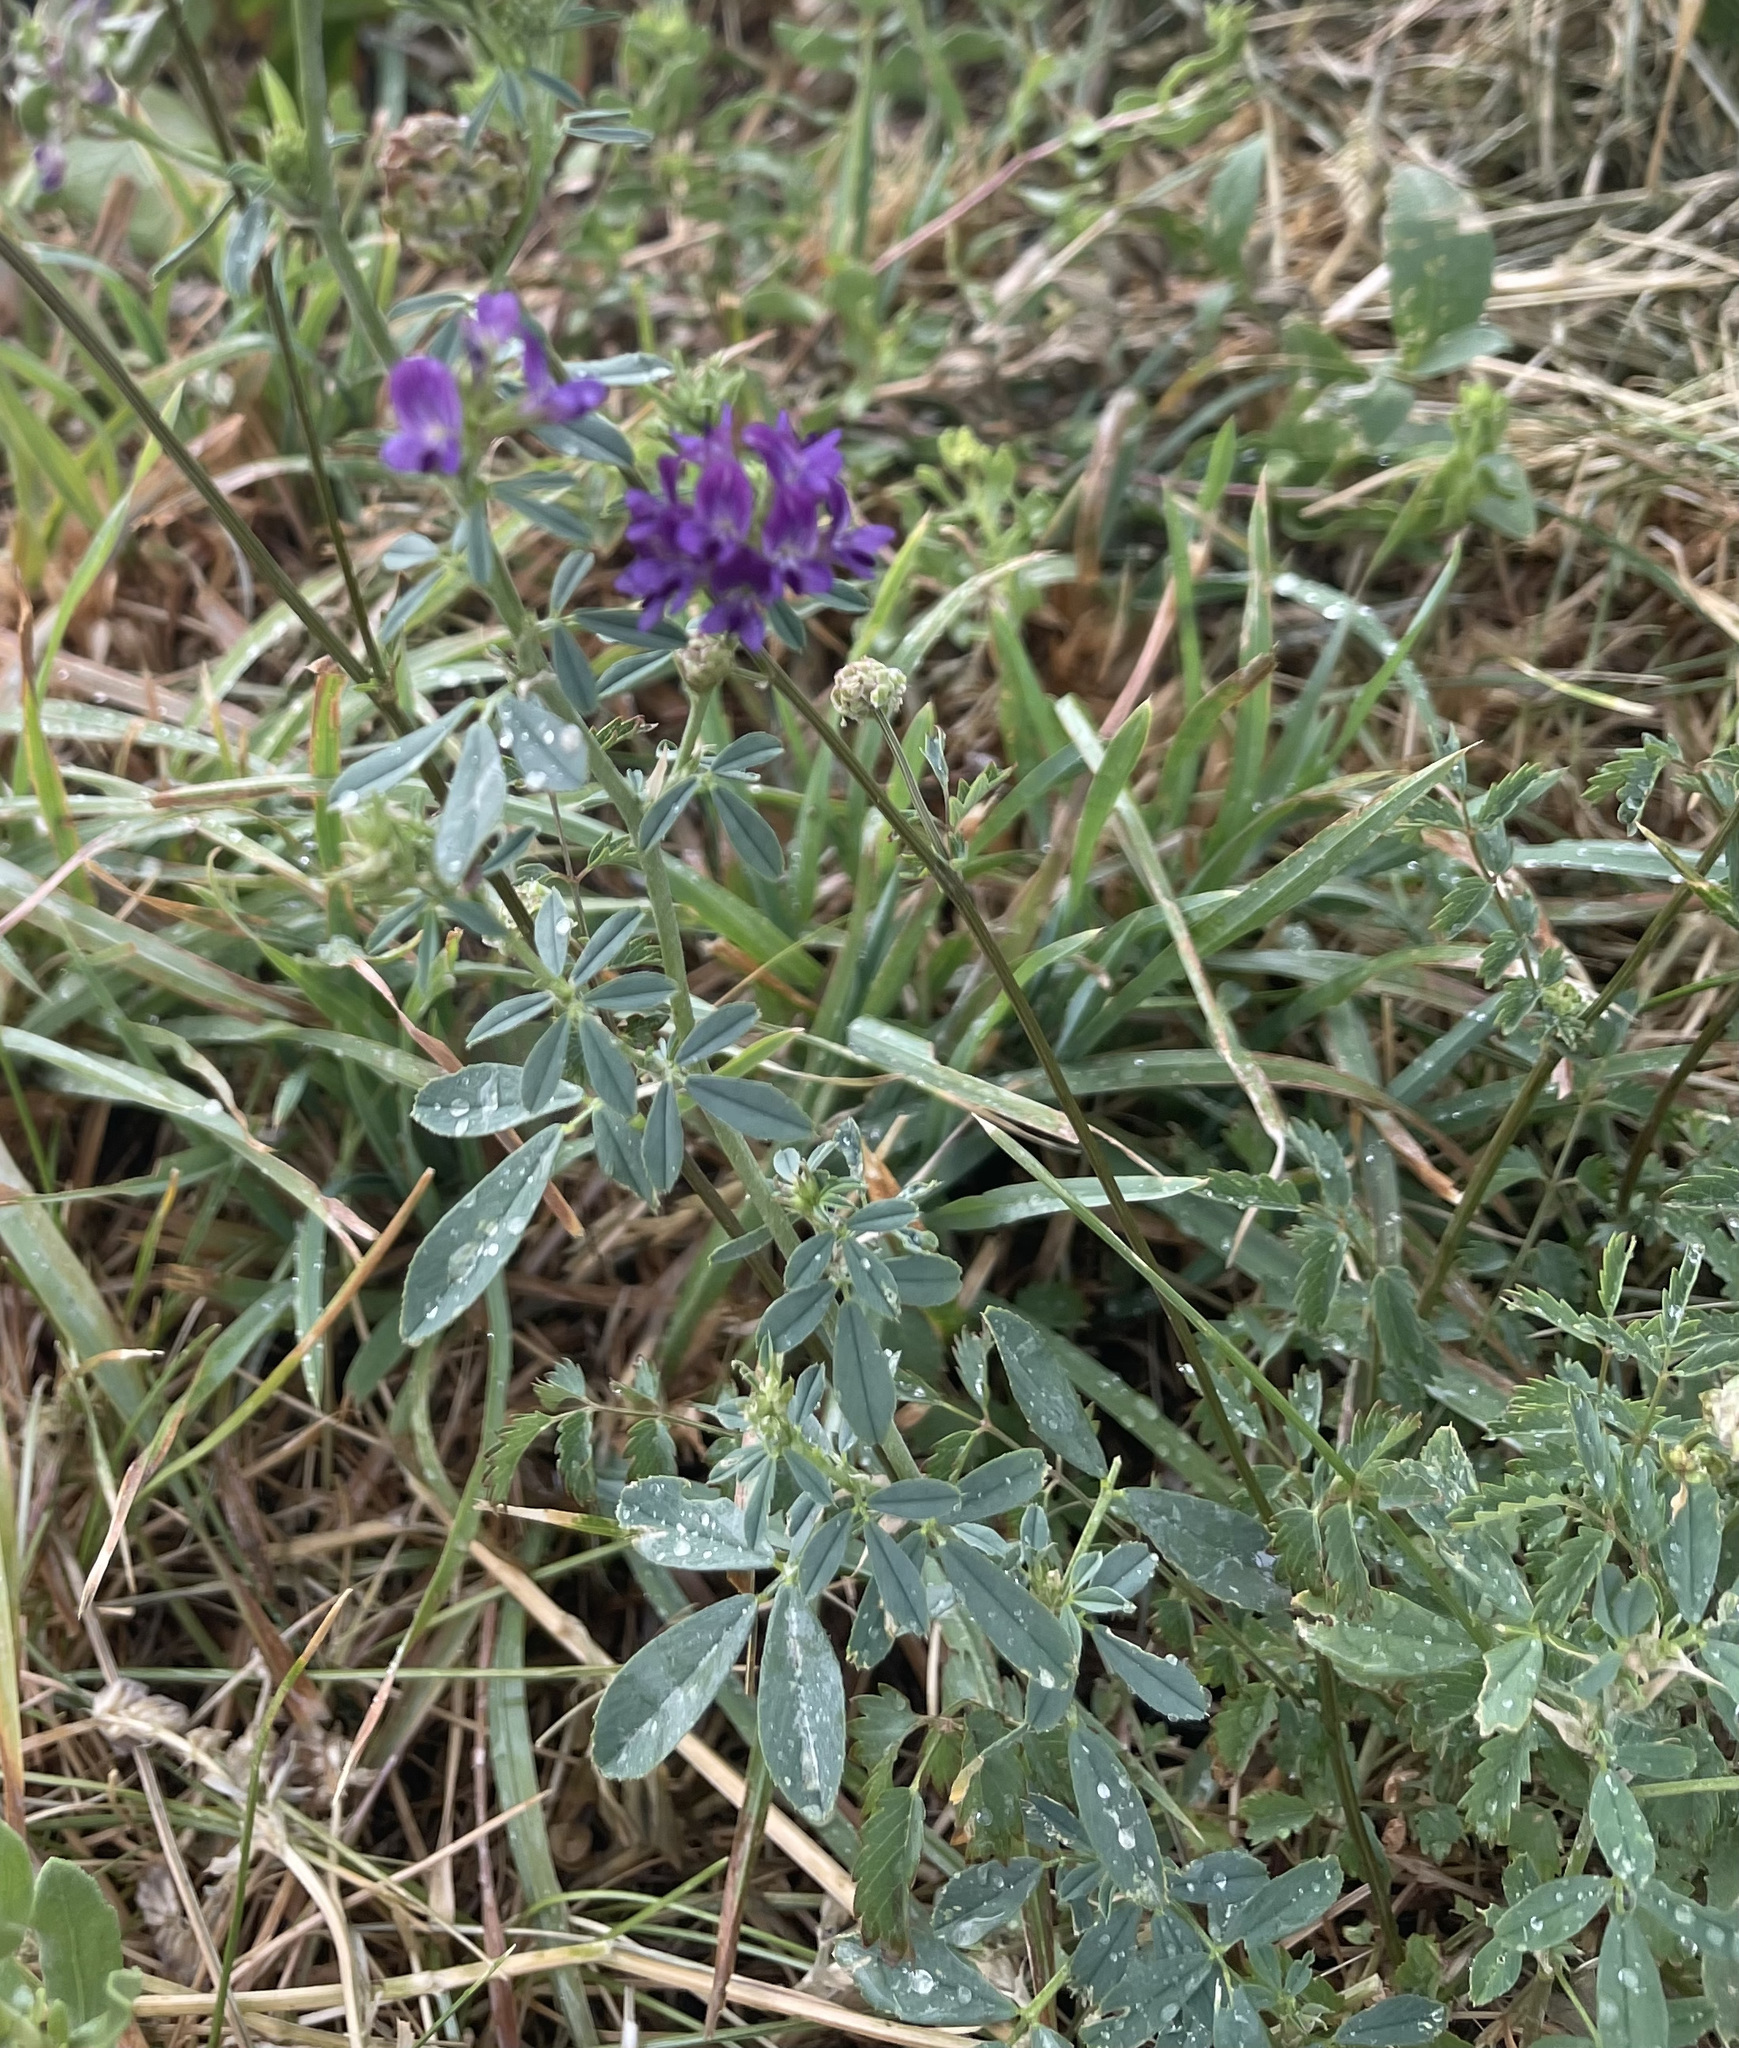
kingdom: Plantae
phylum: Tracheophyta
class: Magnoliopsida
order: Fabales
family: Fabaceae
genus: Medicago
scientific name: Medicago sativa
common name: Alfalfa
